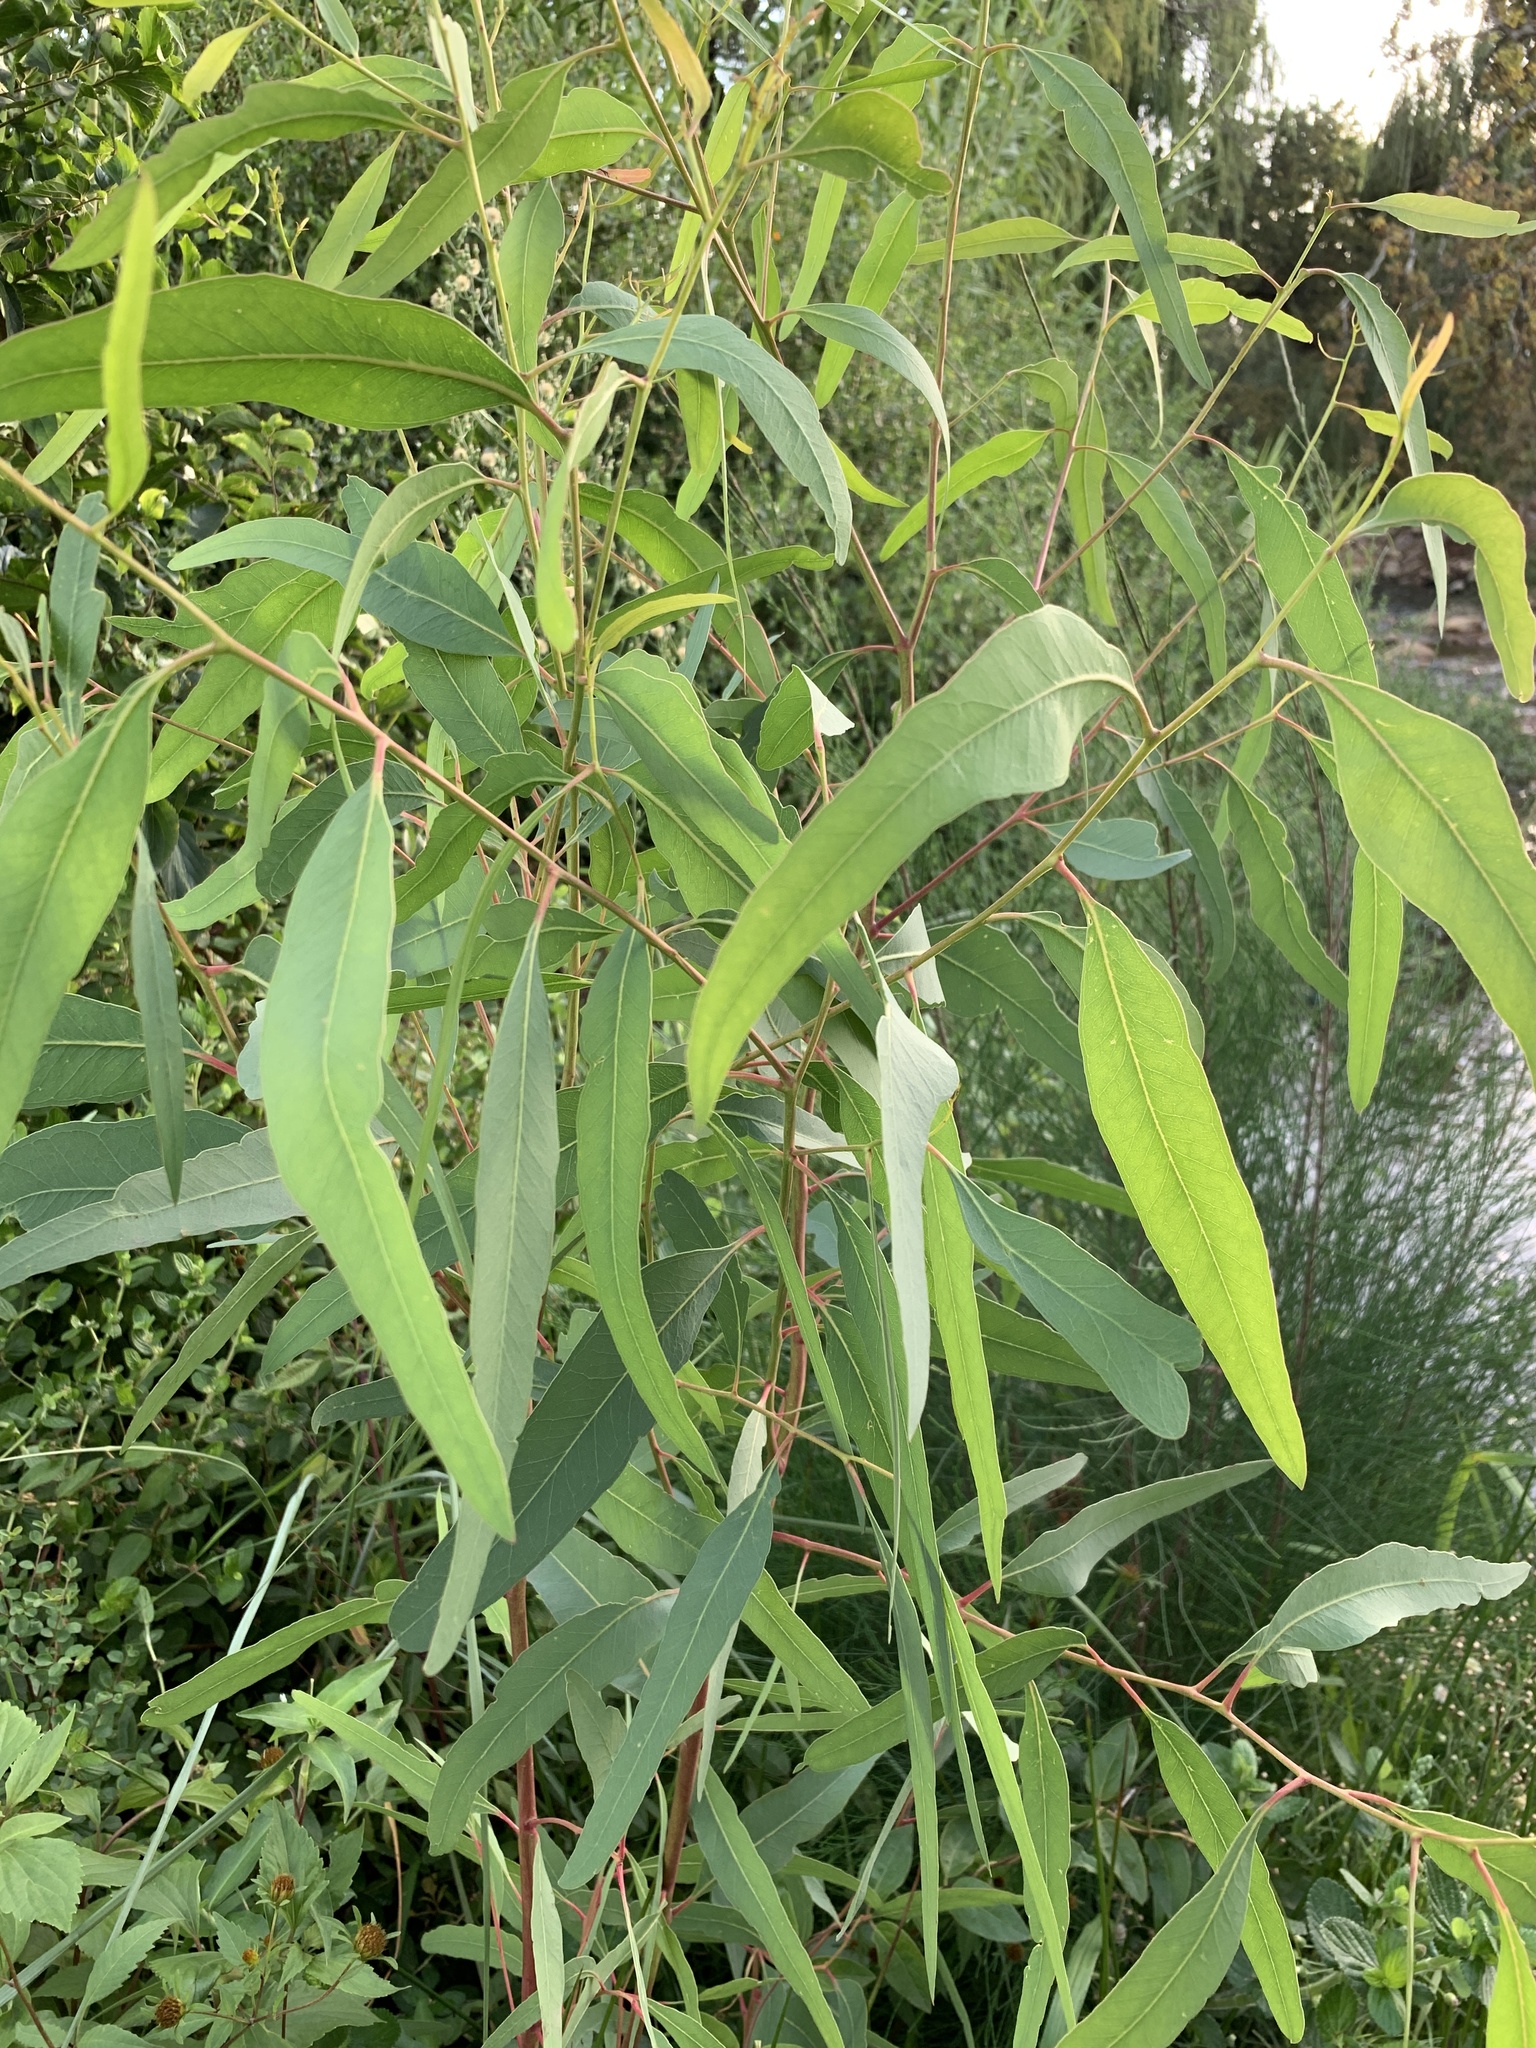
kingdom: Plantae
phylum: Tracheophyta
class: Magnoliopsida
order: Myrtales
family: Myrtaceae
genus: Eucalyptus
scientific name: Eucalyptus camaldulensis
